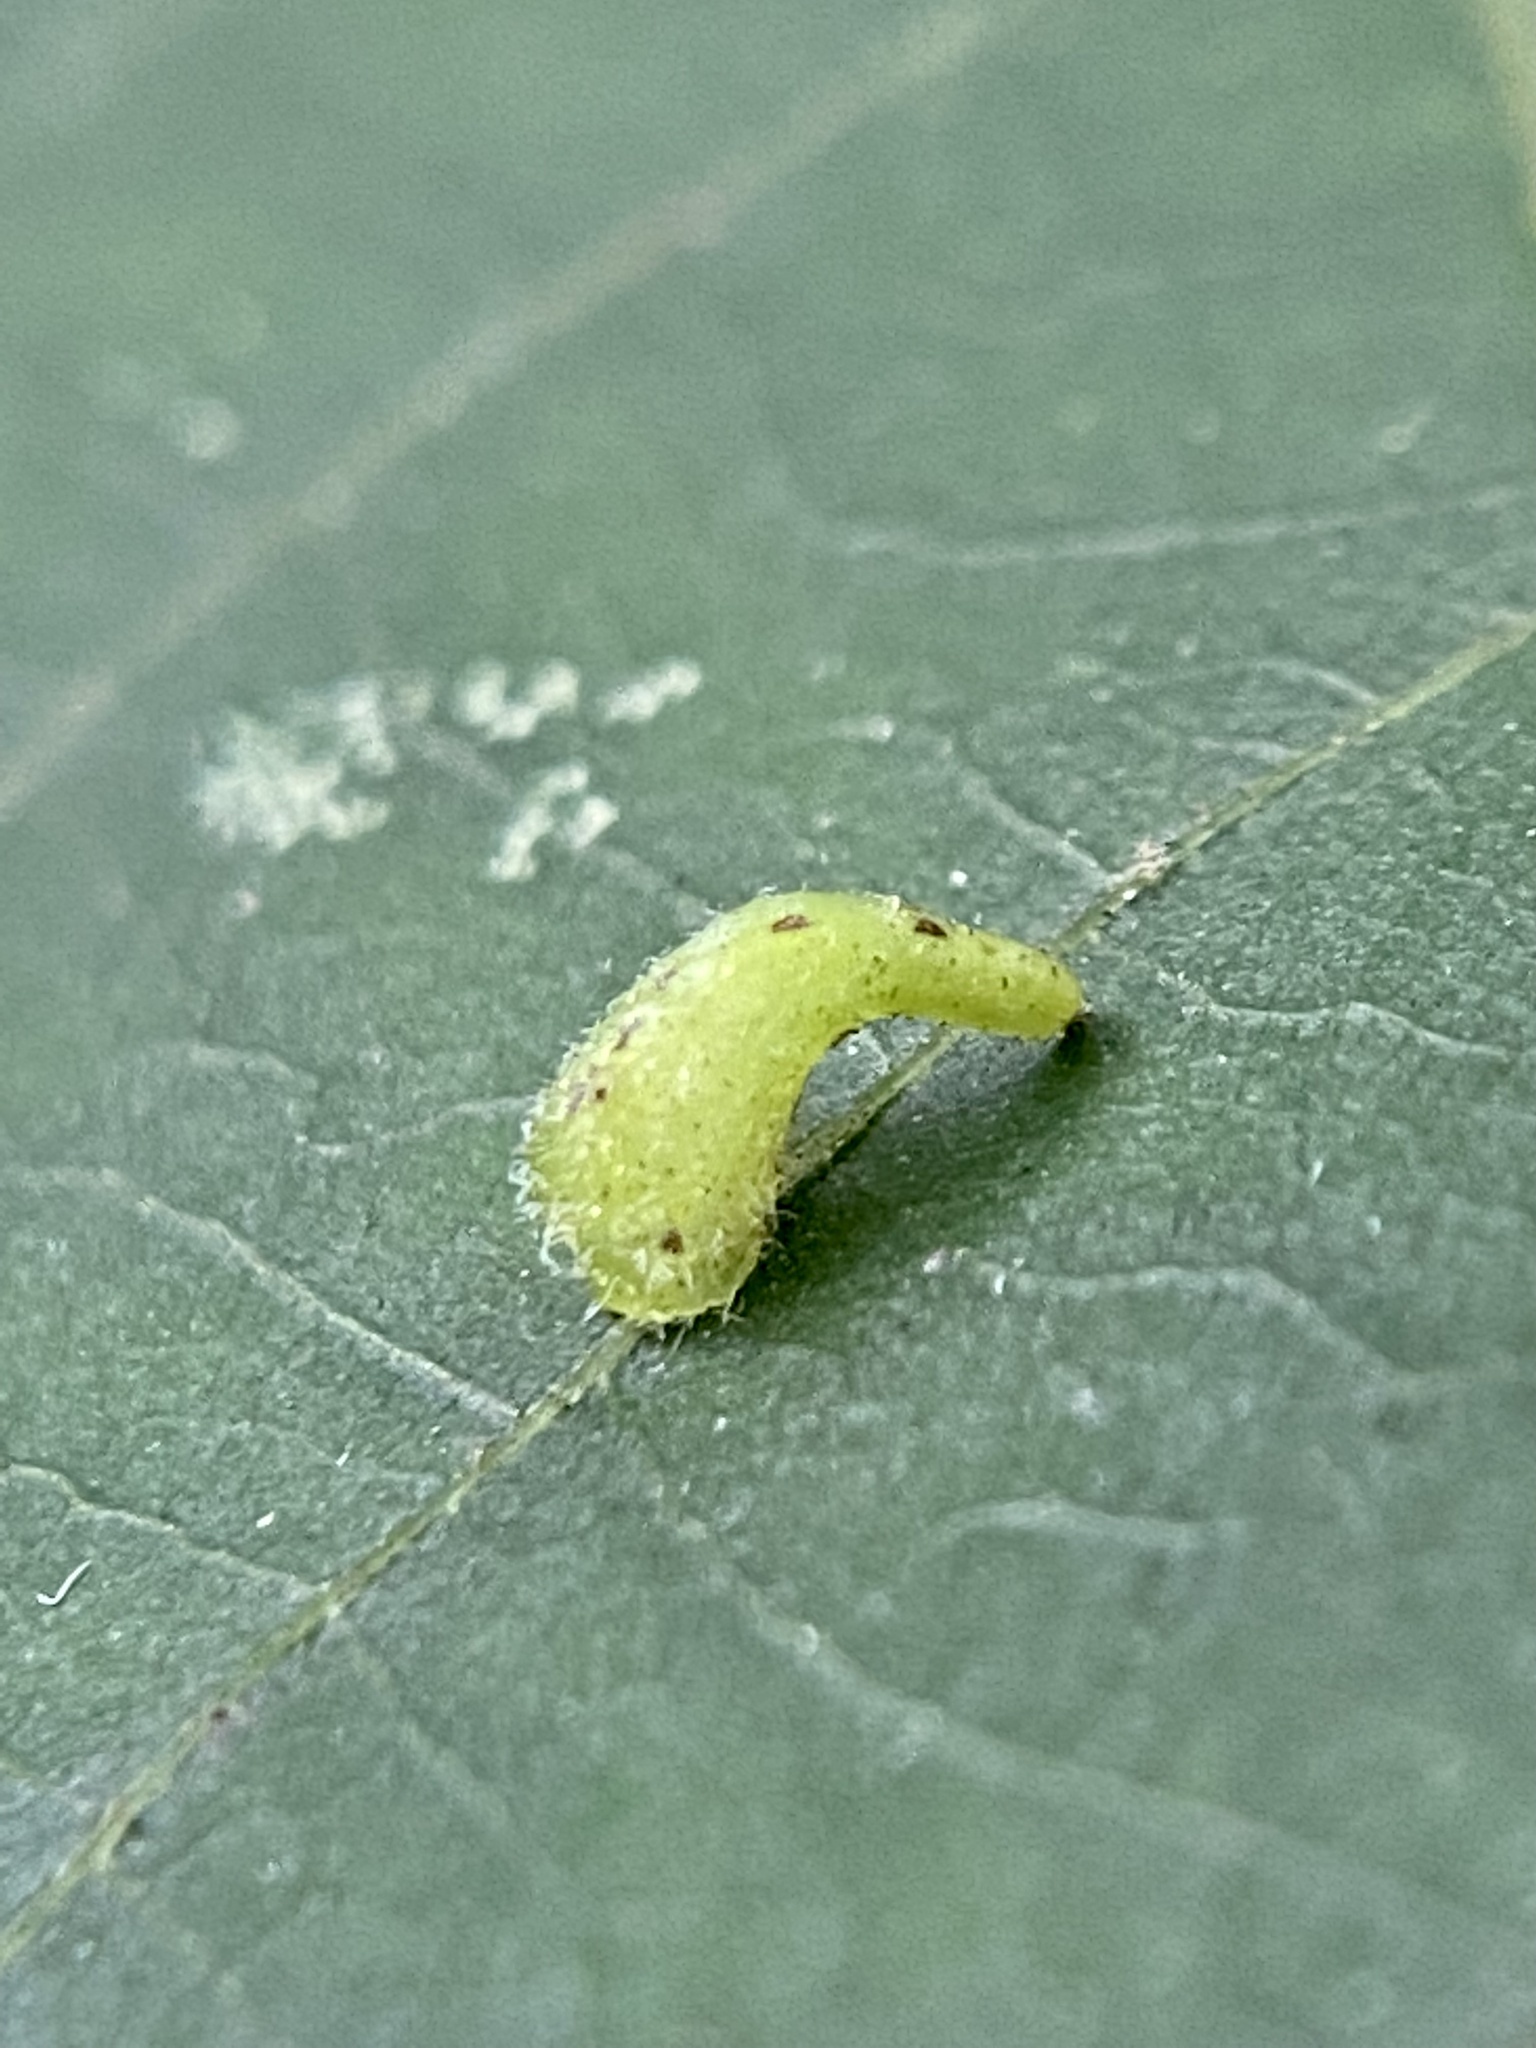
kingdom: Animalia
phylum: Arthropoda
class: Insecta
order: Diptera
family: Cecidomyiidae
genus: Caryomyia
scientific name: Caryomyia spinulosa
